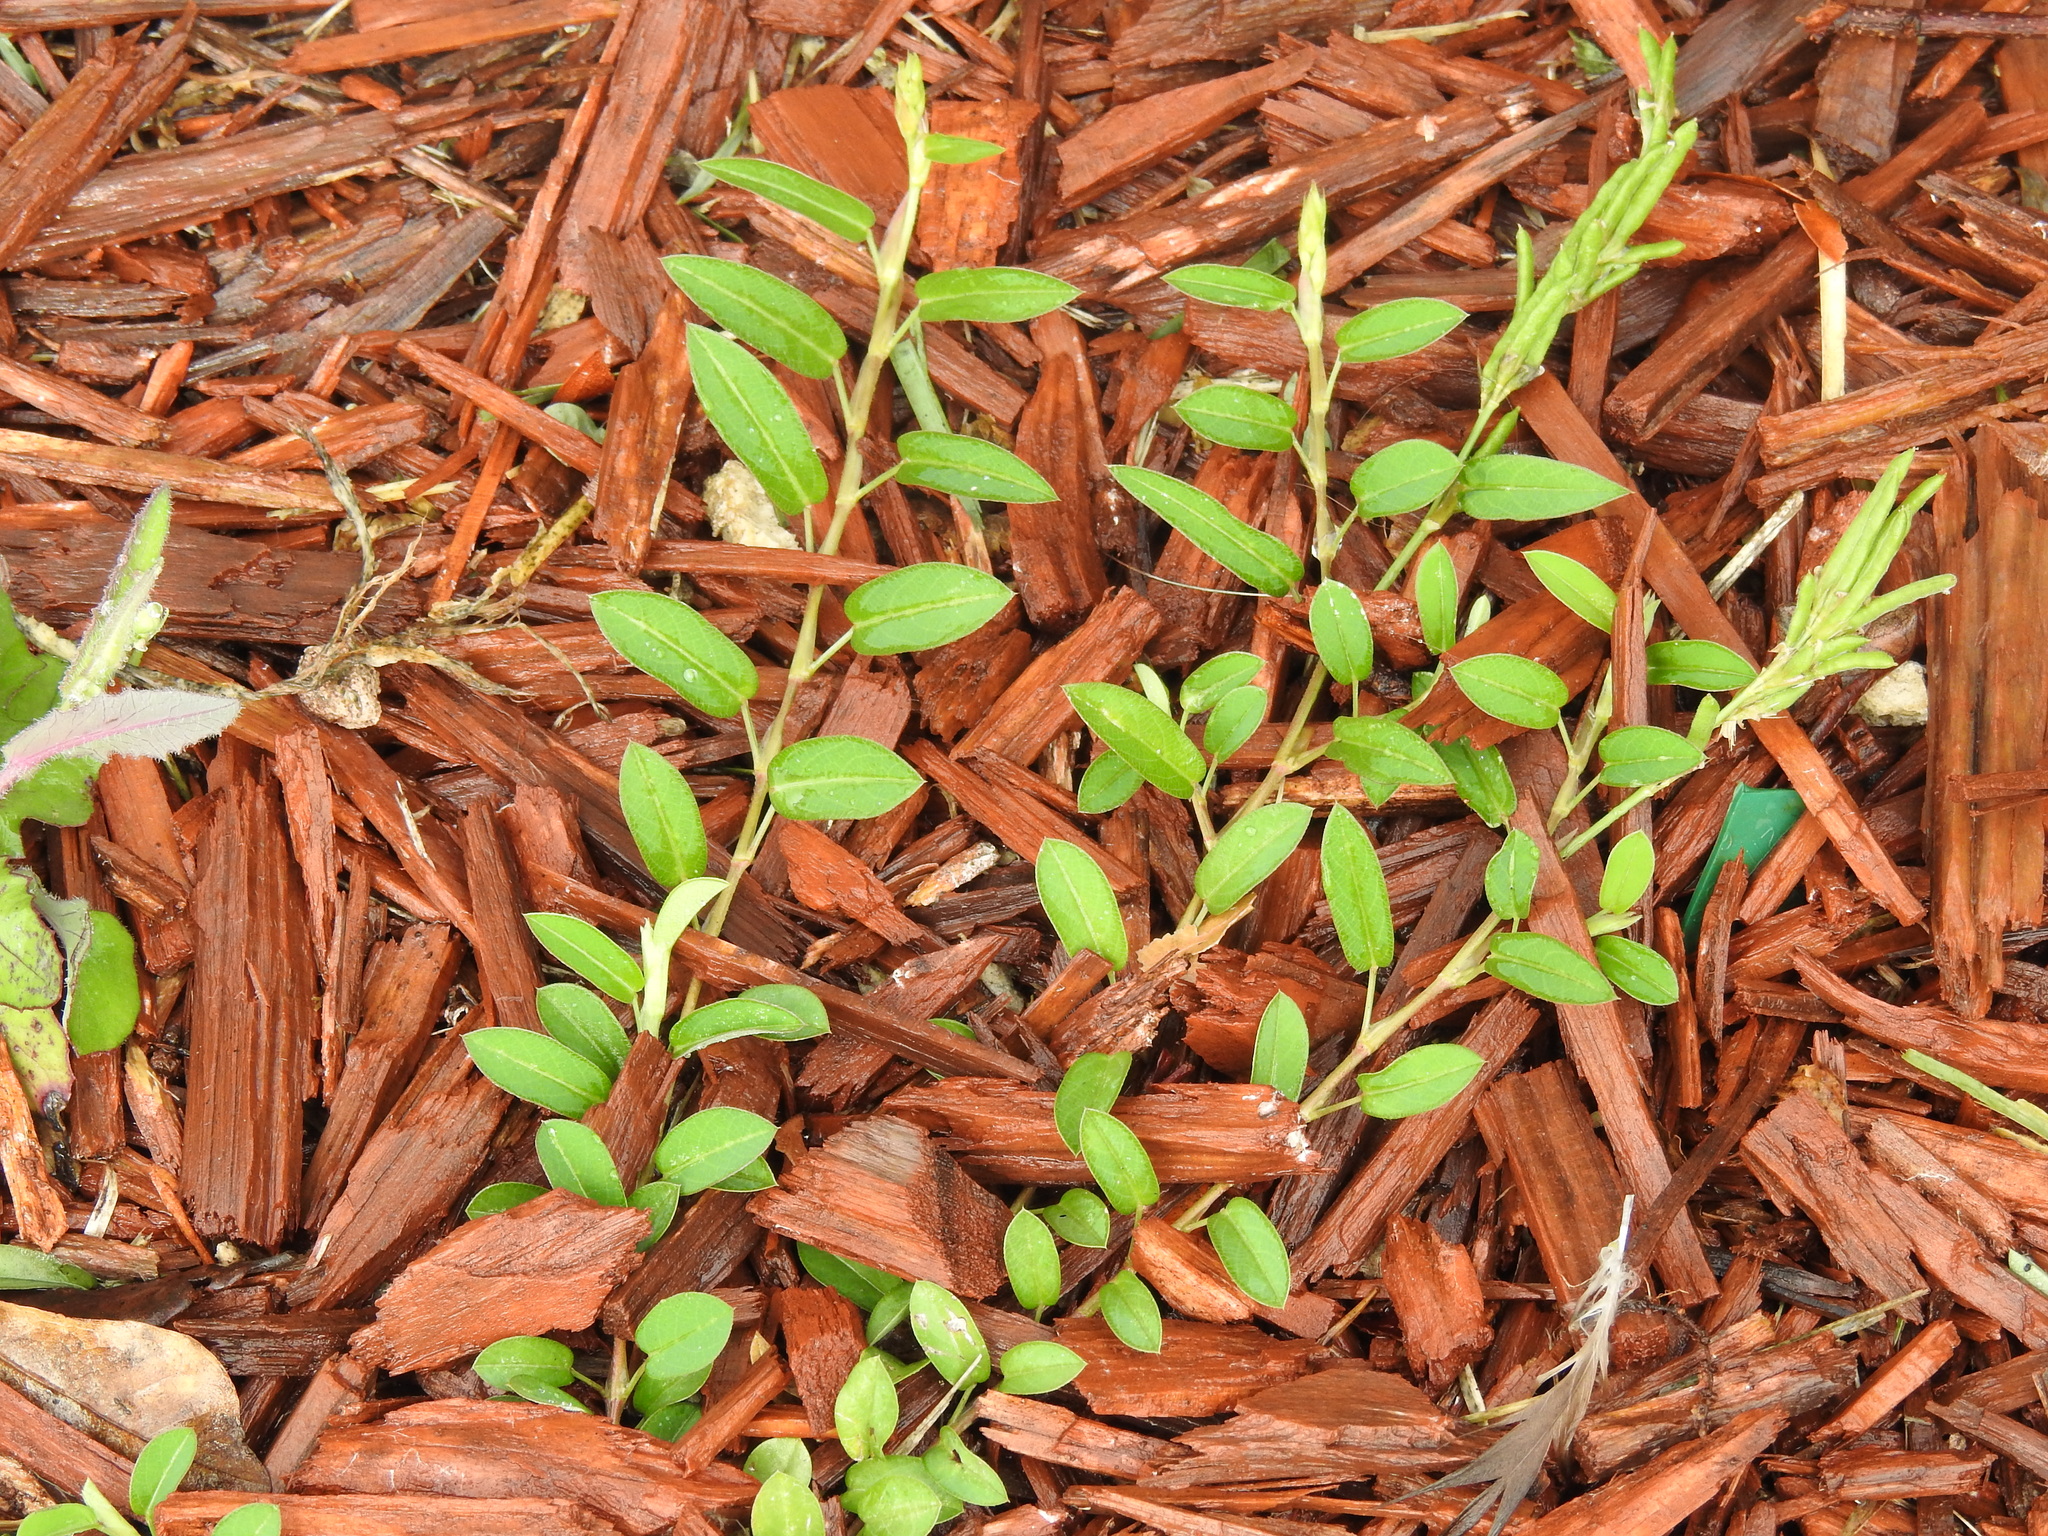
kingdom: Plantae
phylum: Tracheophyta
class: Magnoliopsida
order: Fabales
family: Fabaceae
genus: Alysicarpus
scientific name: Alysicarpus vaginalis
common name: White moneywort
